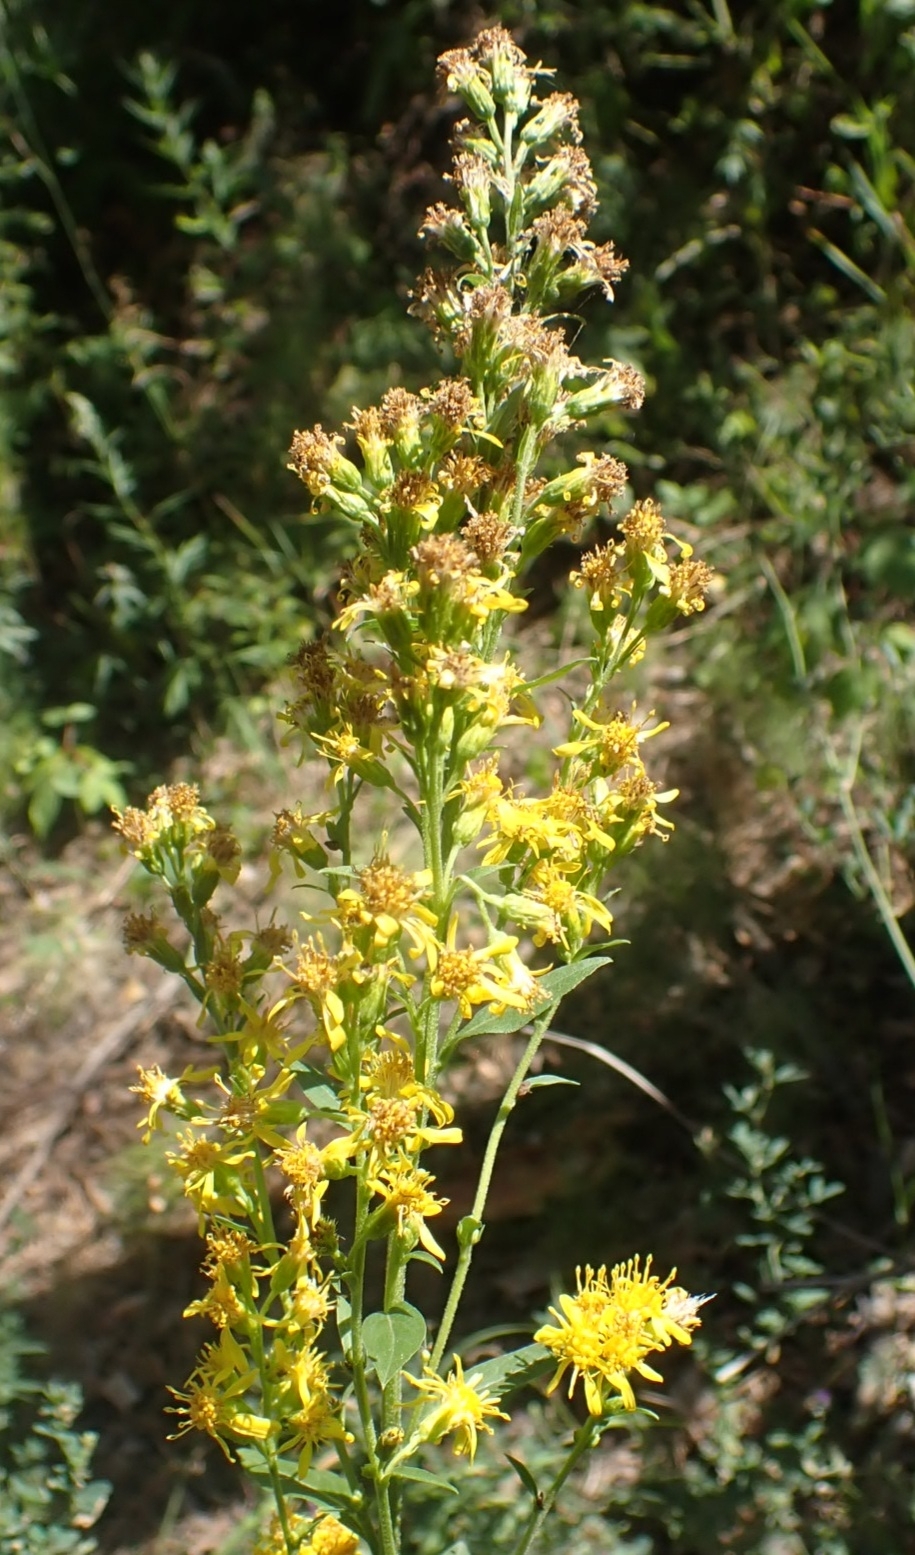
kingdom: Plantae
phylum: Tracheophyta
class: Magnoliopsida
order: Asterales
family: Asteraceae
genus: Solidago
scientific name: Solidago virgaurea
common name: Goldenrod
